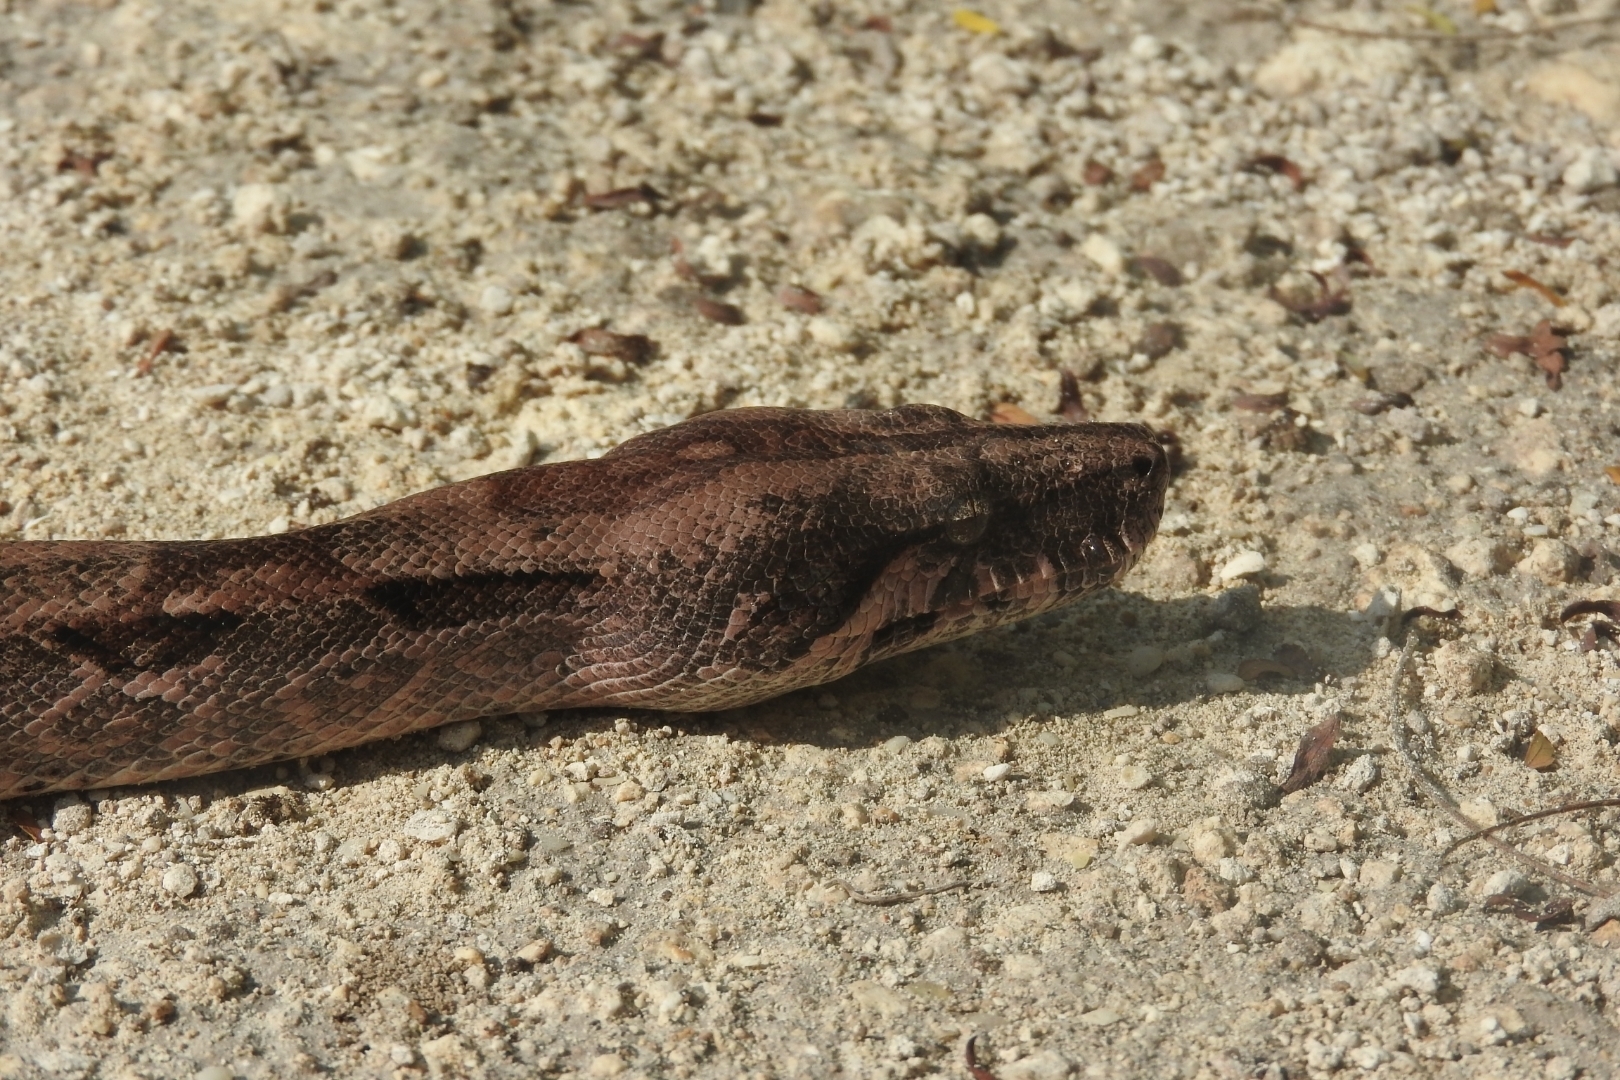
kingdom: Animalia
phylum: Chordata
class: Squamata
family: Boidae
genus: Boa
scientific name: Boa imperator
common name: Central american boa
